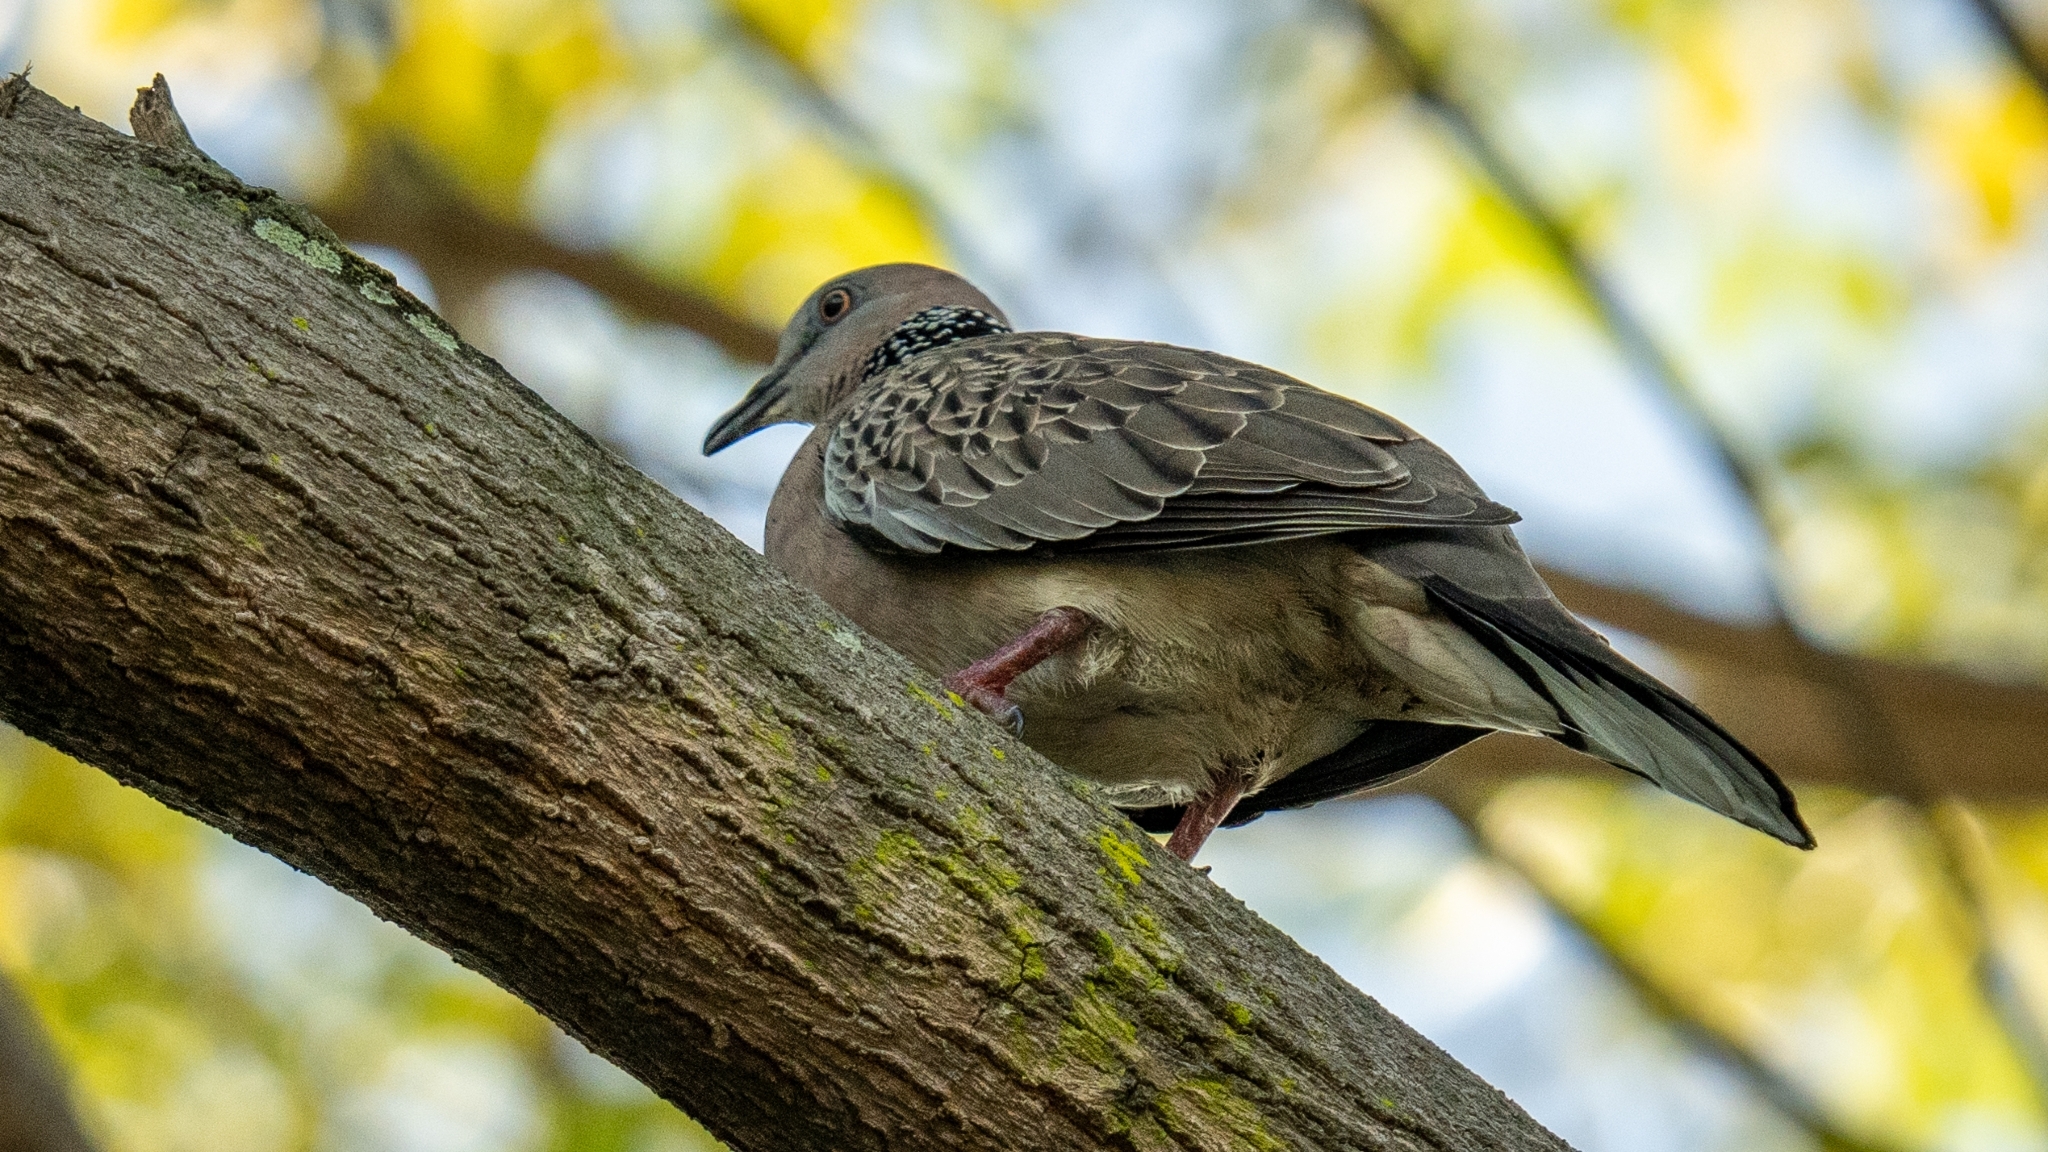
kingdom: Animalia
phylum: Chordata
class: Aves
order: Columbiformes
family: Columbidae
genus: Spilopelia
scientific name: Spilopelia chinensis
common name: Spotted dove
